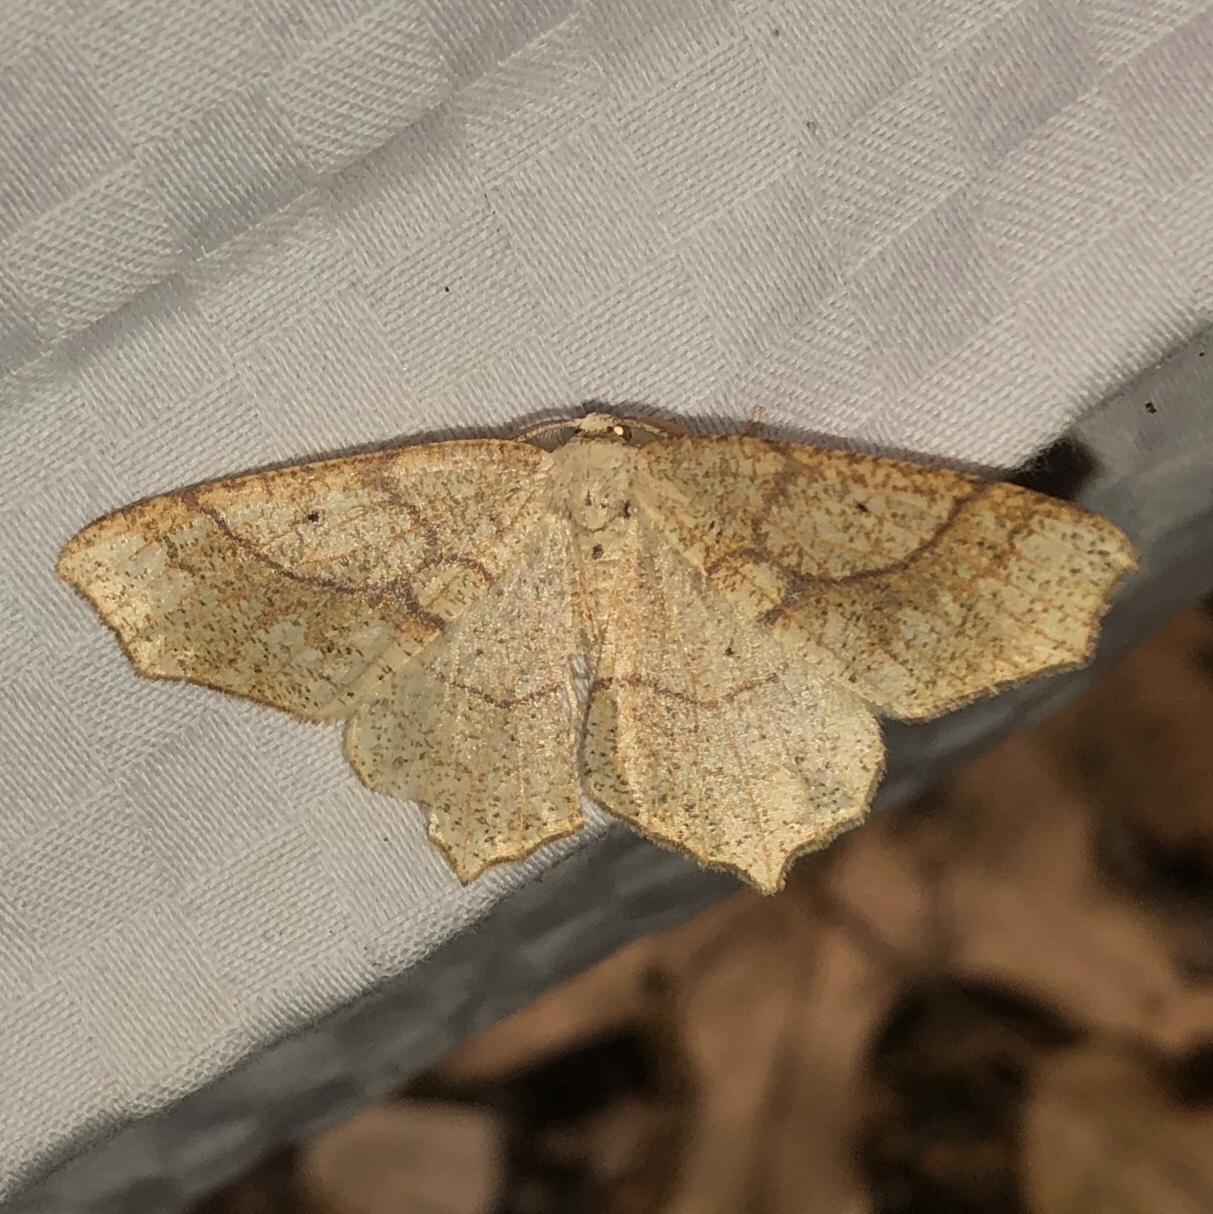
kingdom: Animalia
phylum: Arthropoda
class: Insecta
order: Lepidoptera
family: Geometridae
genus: Besma
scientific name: Besma quercivoraria
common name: Oak besma
